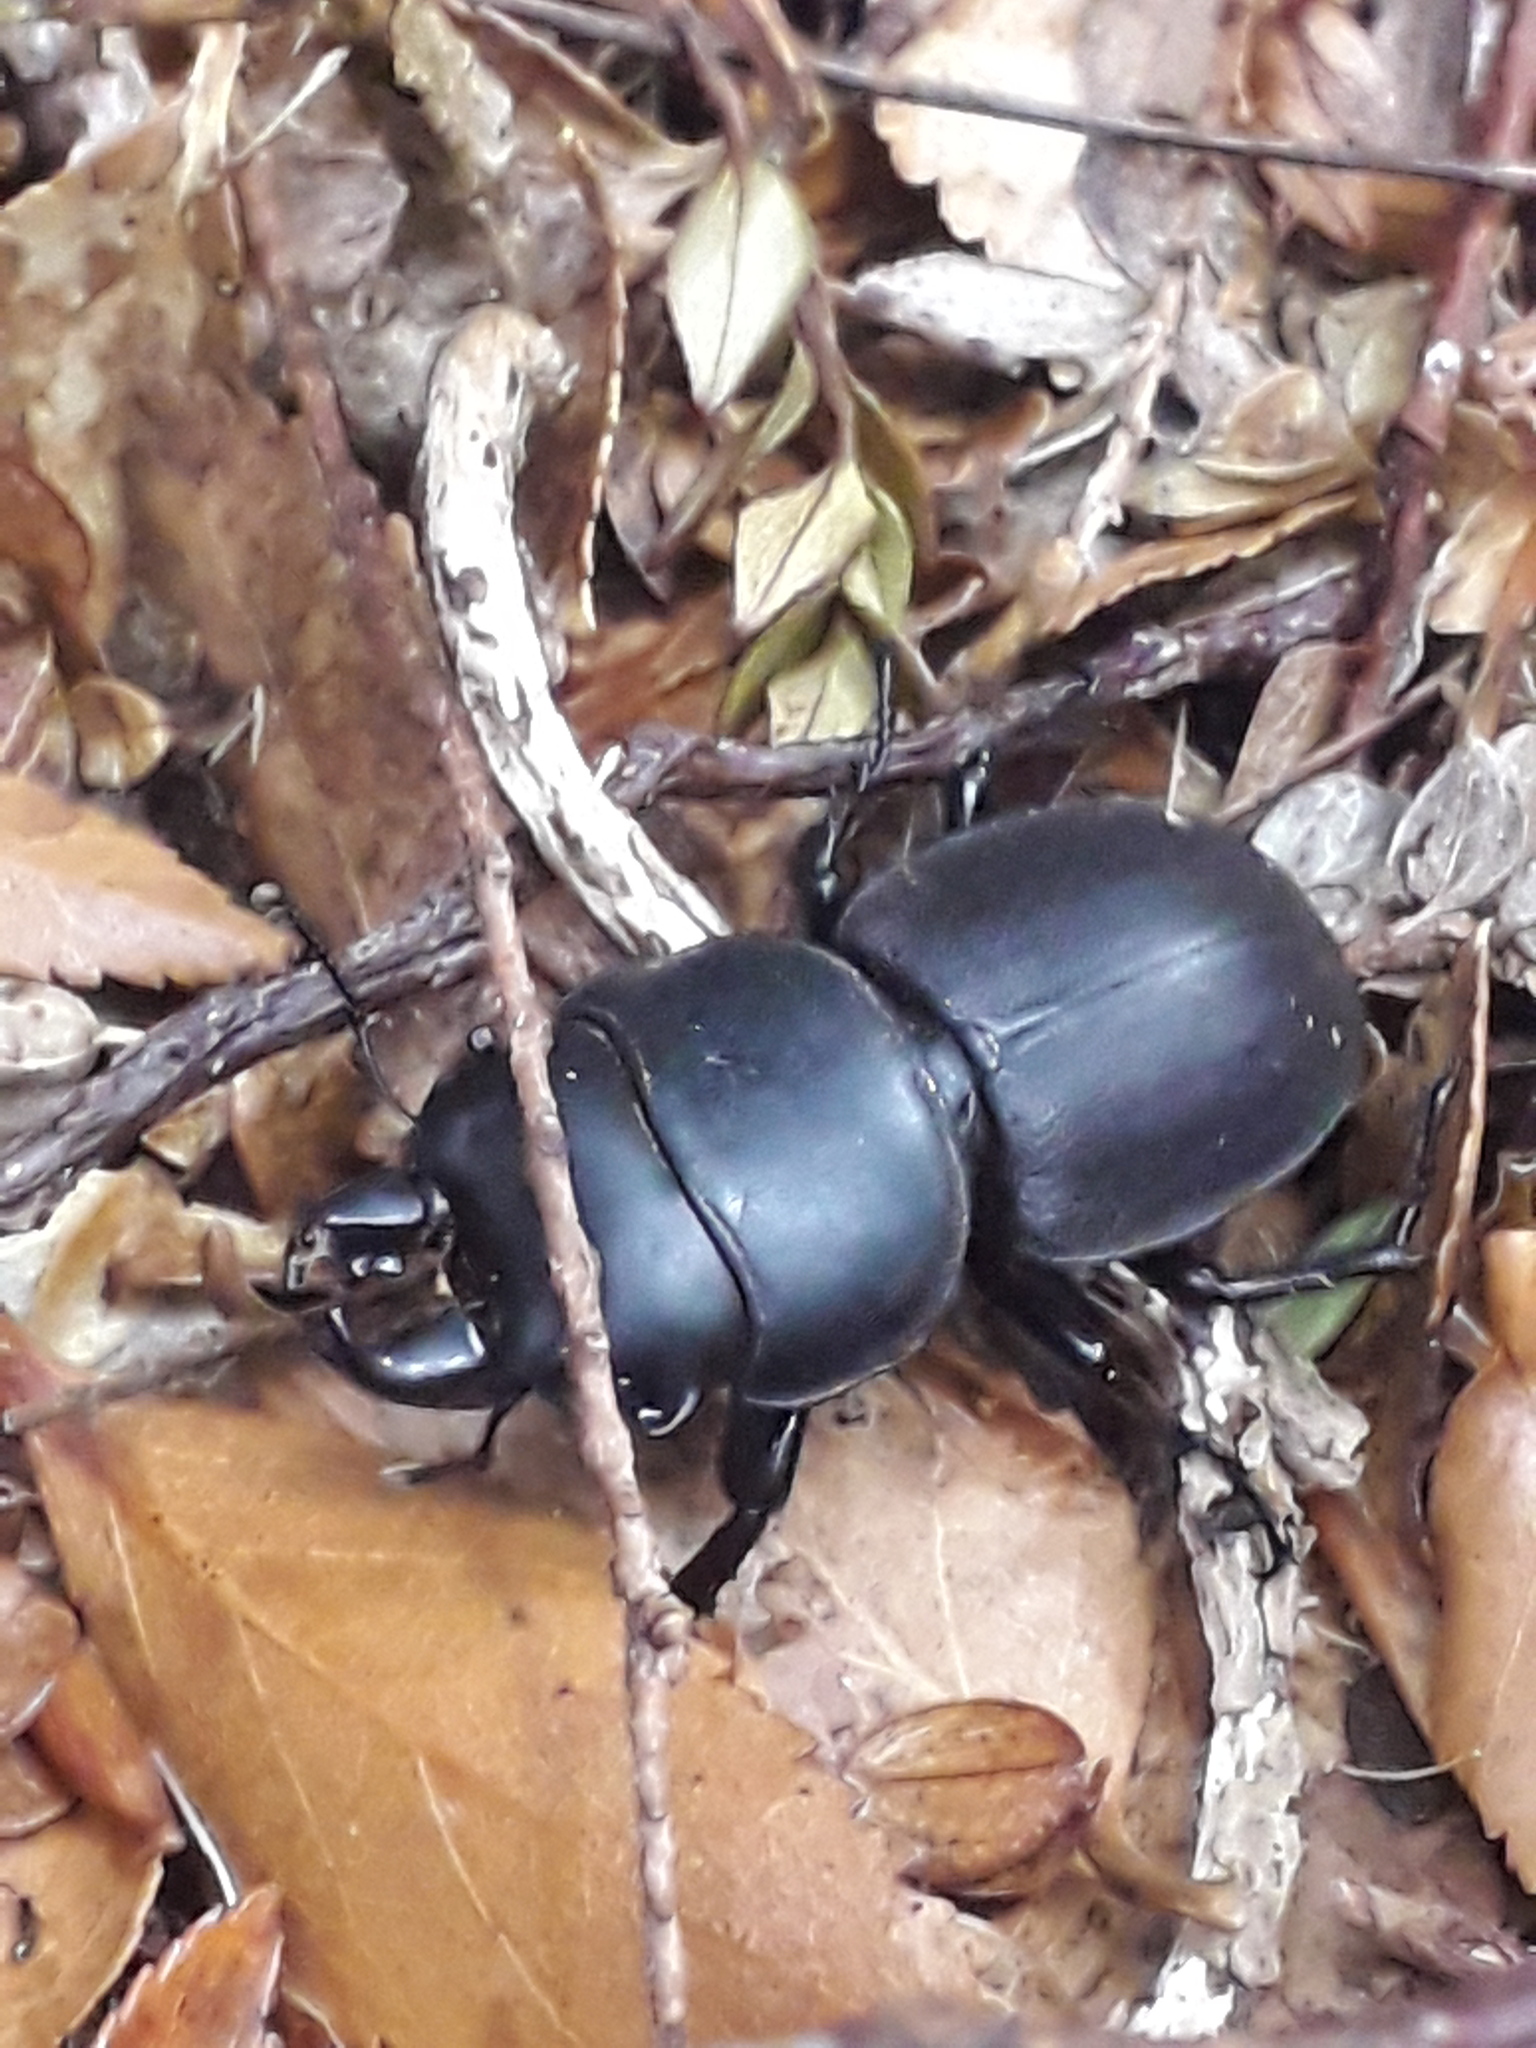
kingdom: Animalia
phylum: Arthropoda
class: Insecta
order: Coleoptera
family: Lucanidae
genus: Apterodorcus
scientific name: Apterodorcus bacchus
